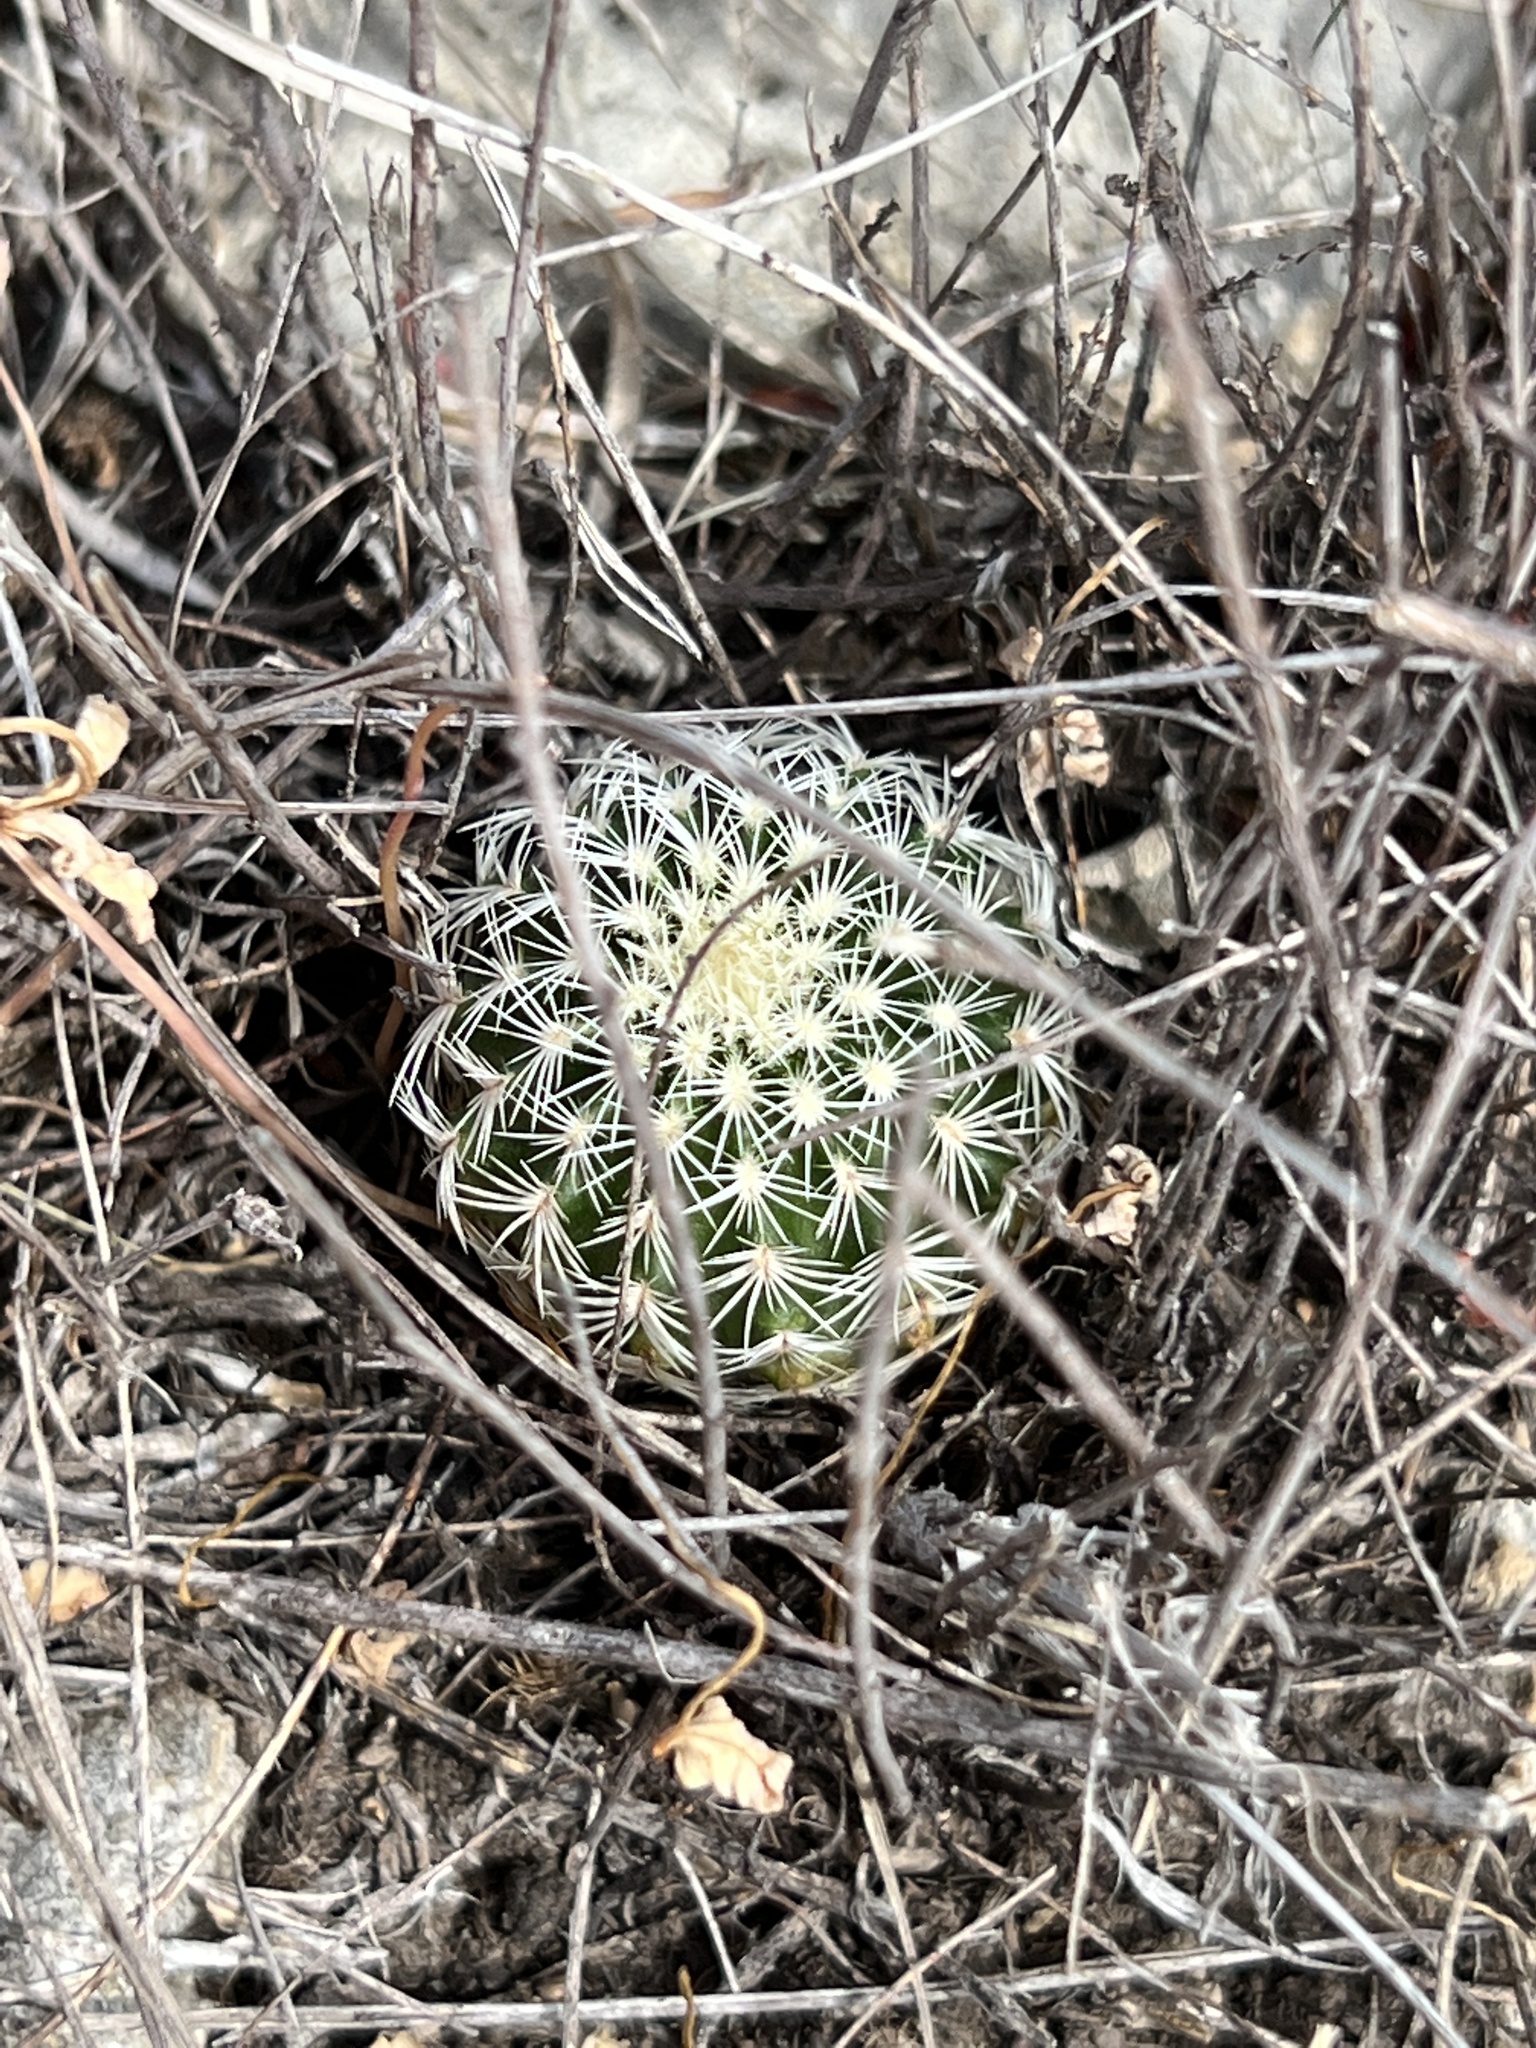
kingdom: Plantae
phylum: Tracheophyta
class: Magnoliopsida
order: Caryophyllales
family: Cactaceae
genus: Echinocereus
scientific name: Echinocereus reichenbachii
